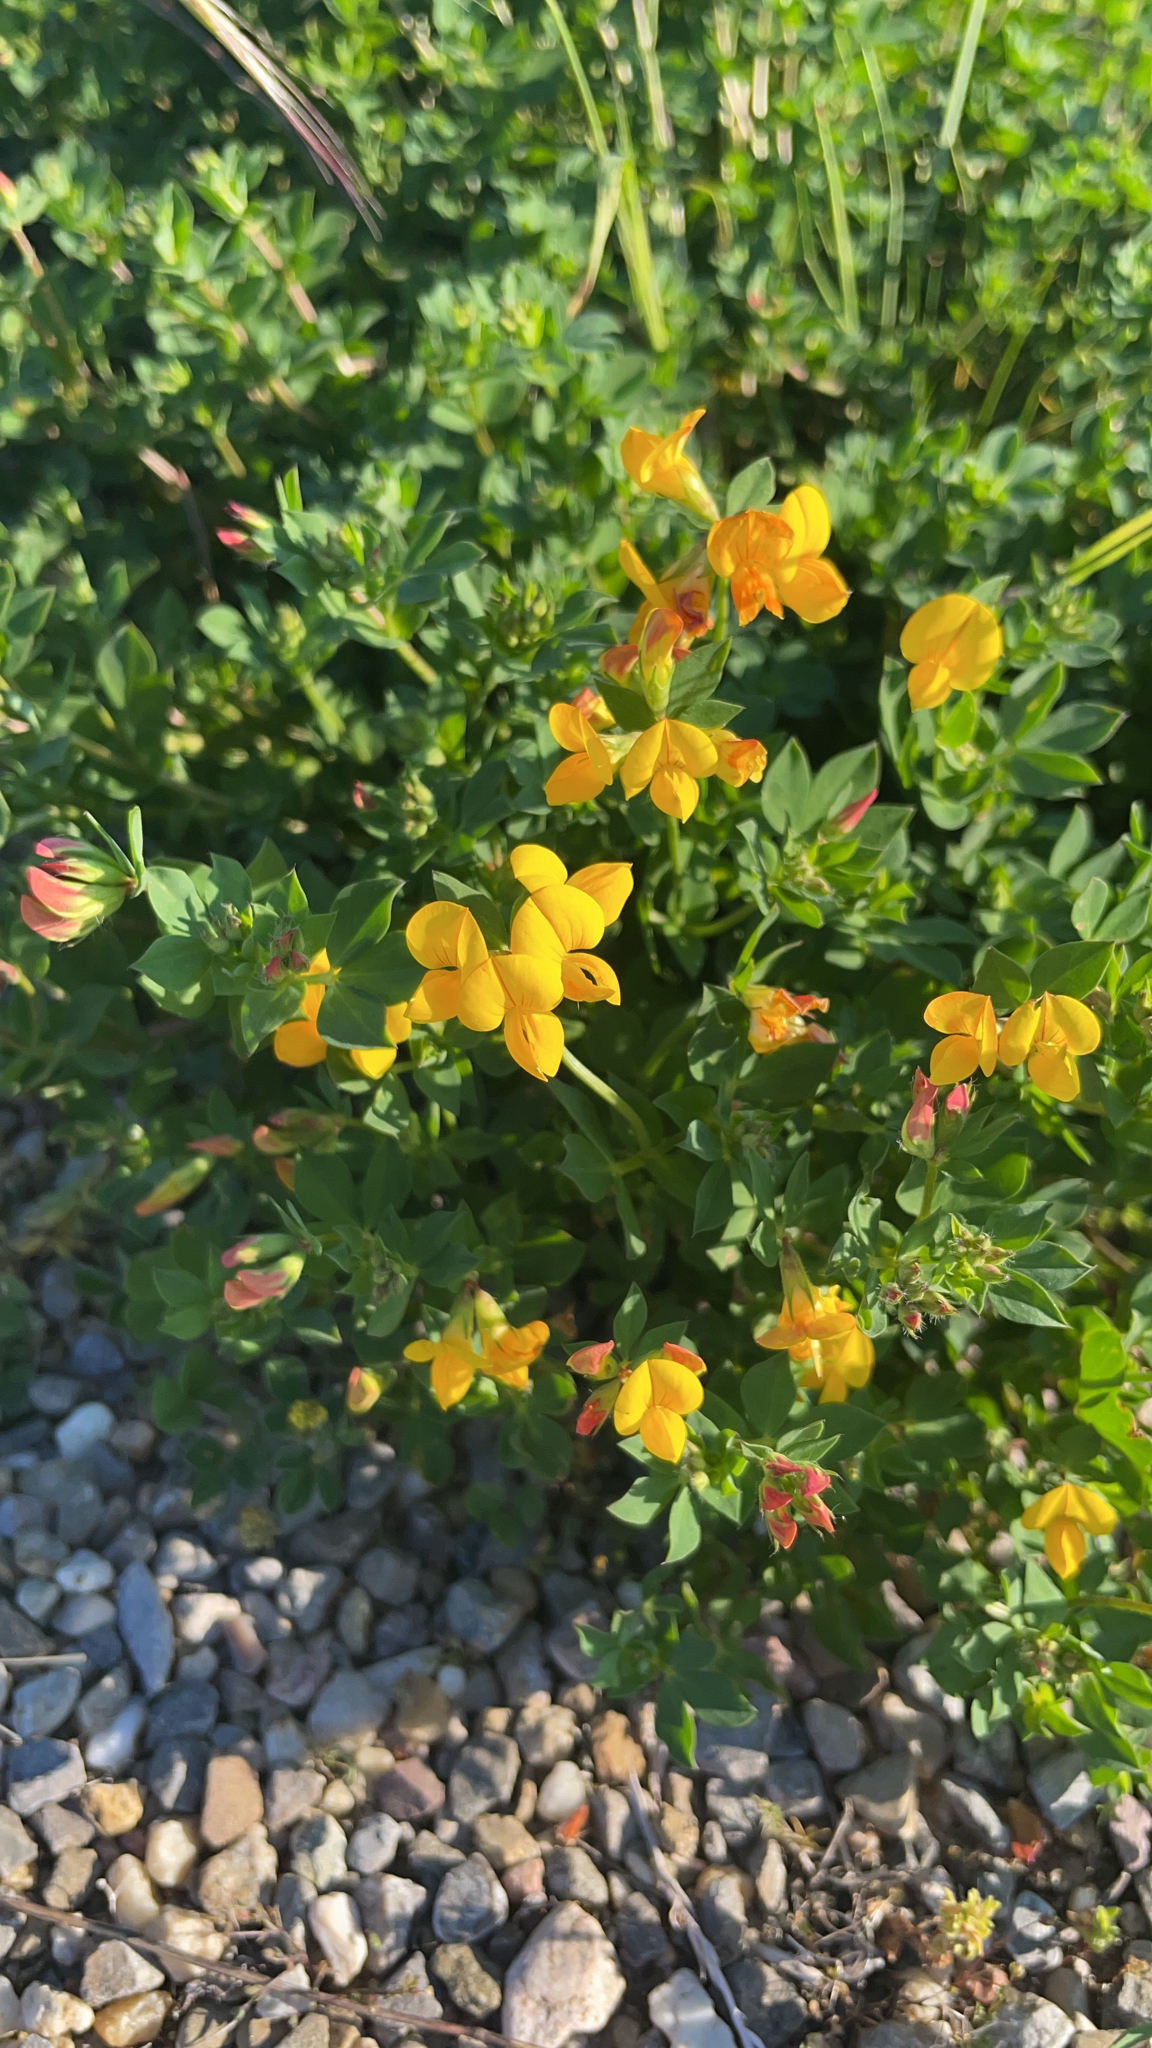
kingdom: Plantae
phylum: Tracheophyta
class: Magnoliopsida
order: Fabales
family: Fabaceae
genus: Lotus
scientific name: Lotus corniculatus
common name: Common bird's-foot-trefoil
